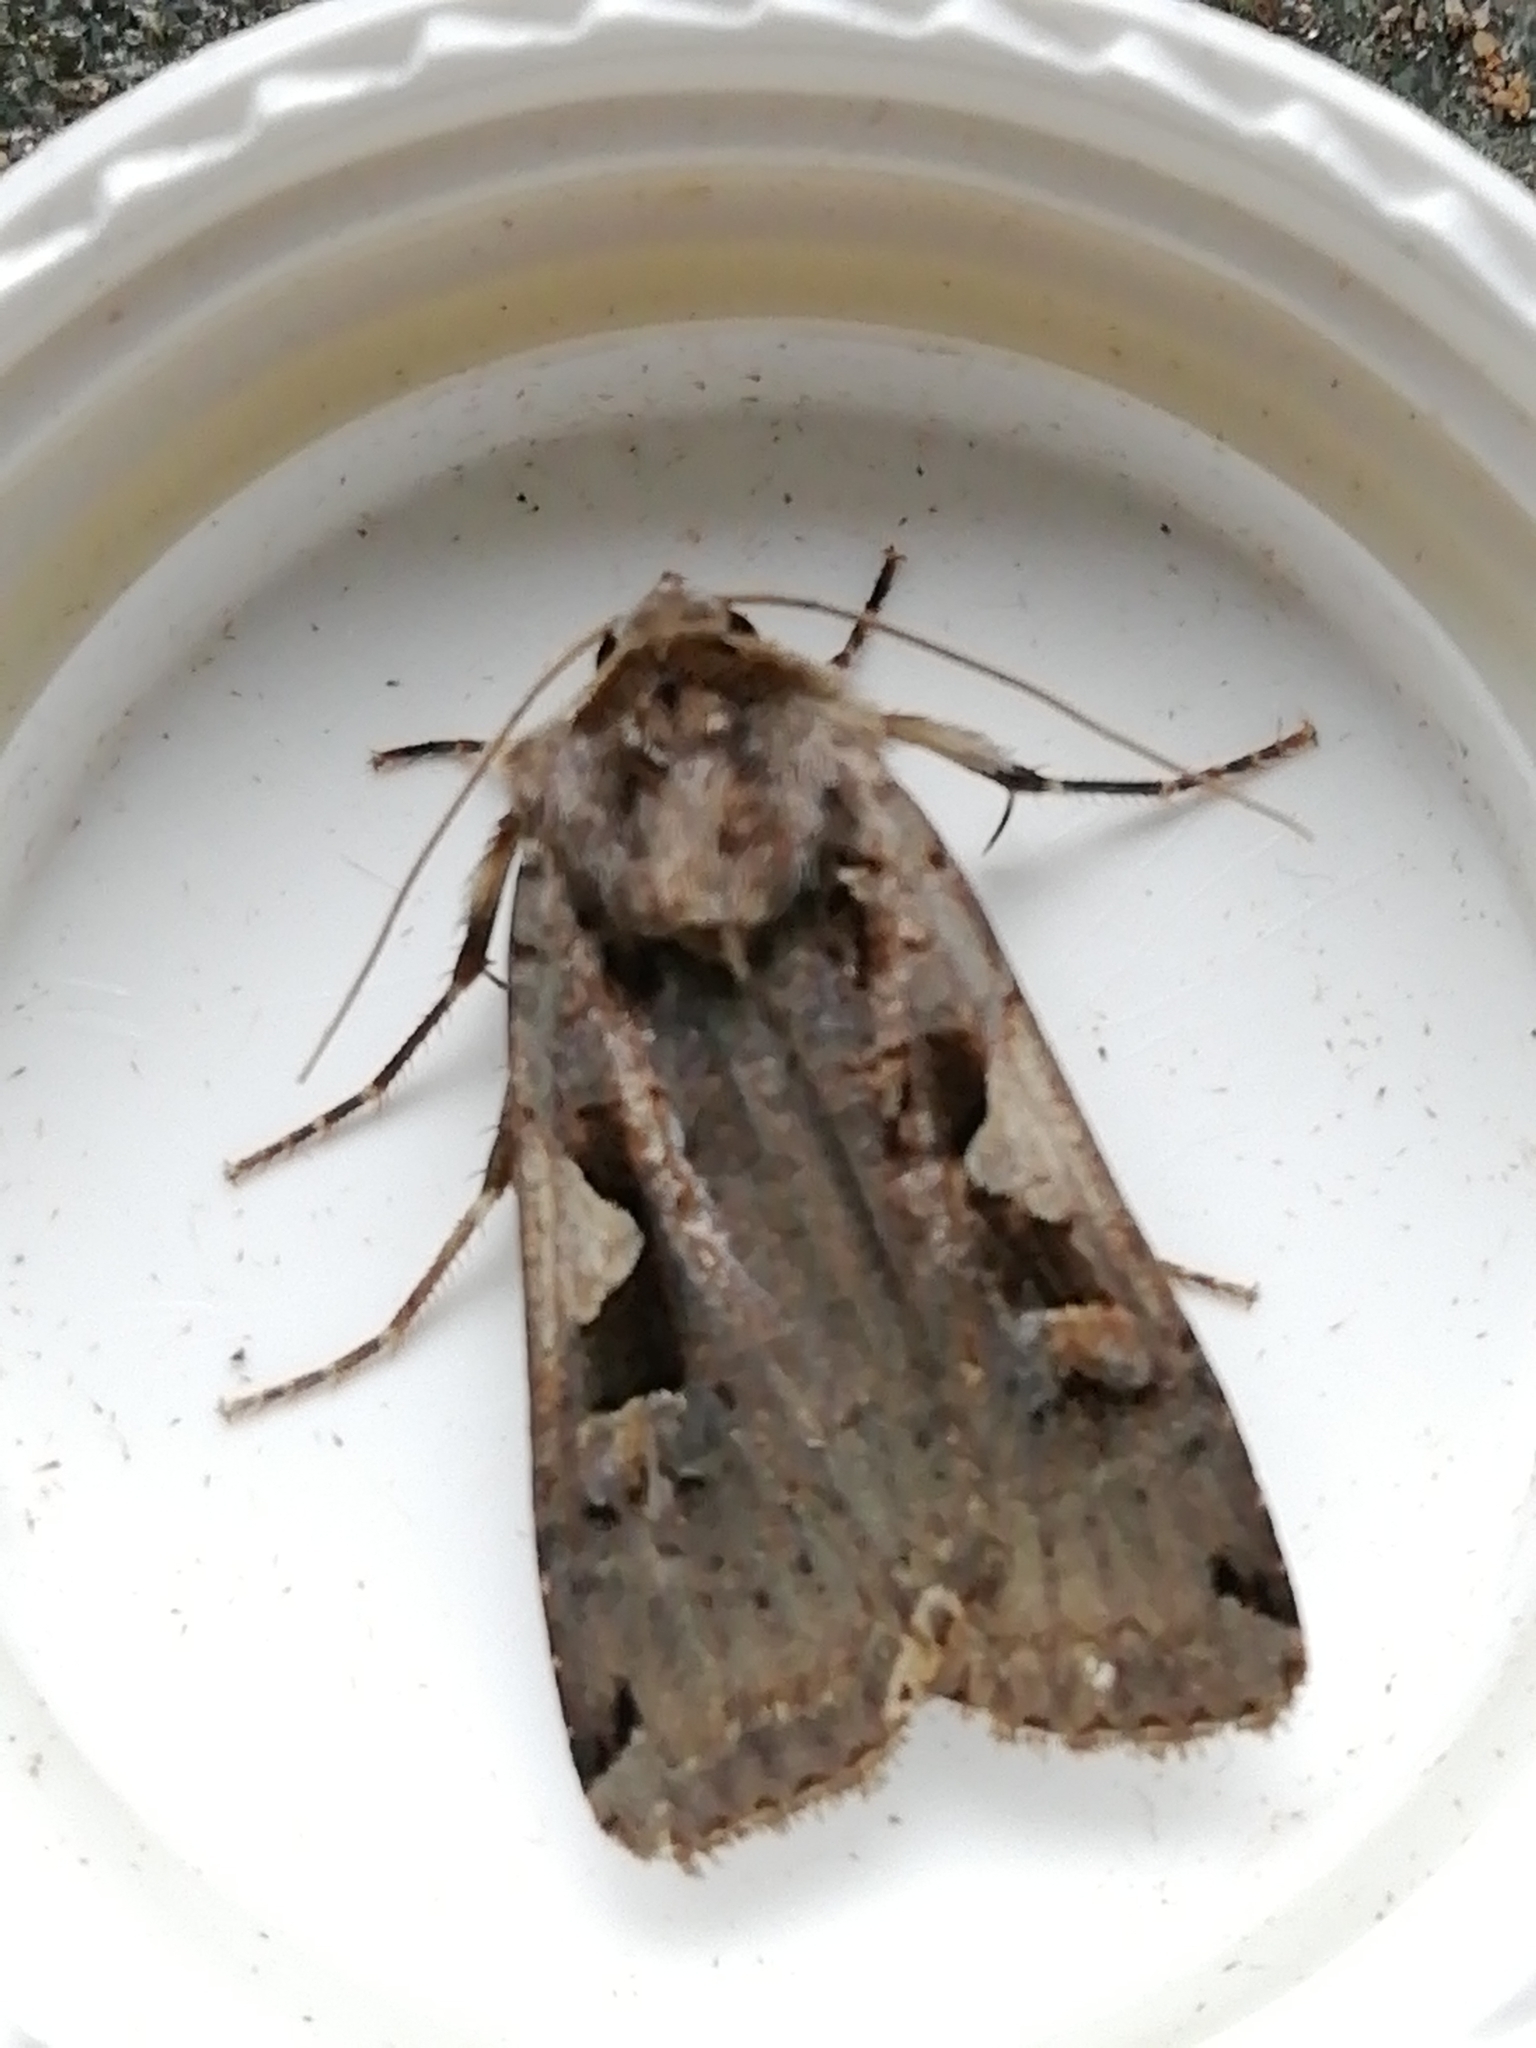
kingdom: Animalia
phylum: Arthropoda
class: Insecta
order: Lepidoptera
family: Noctuidae
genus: Xestia
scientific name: Xestia c-nigrum
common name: Setaceous hebrew character
